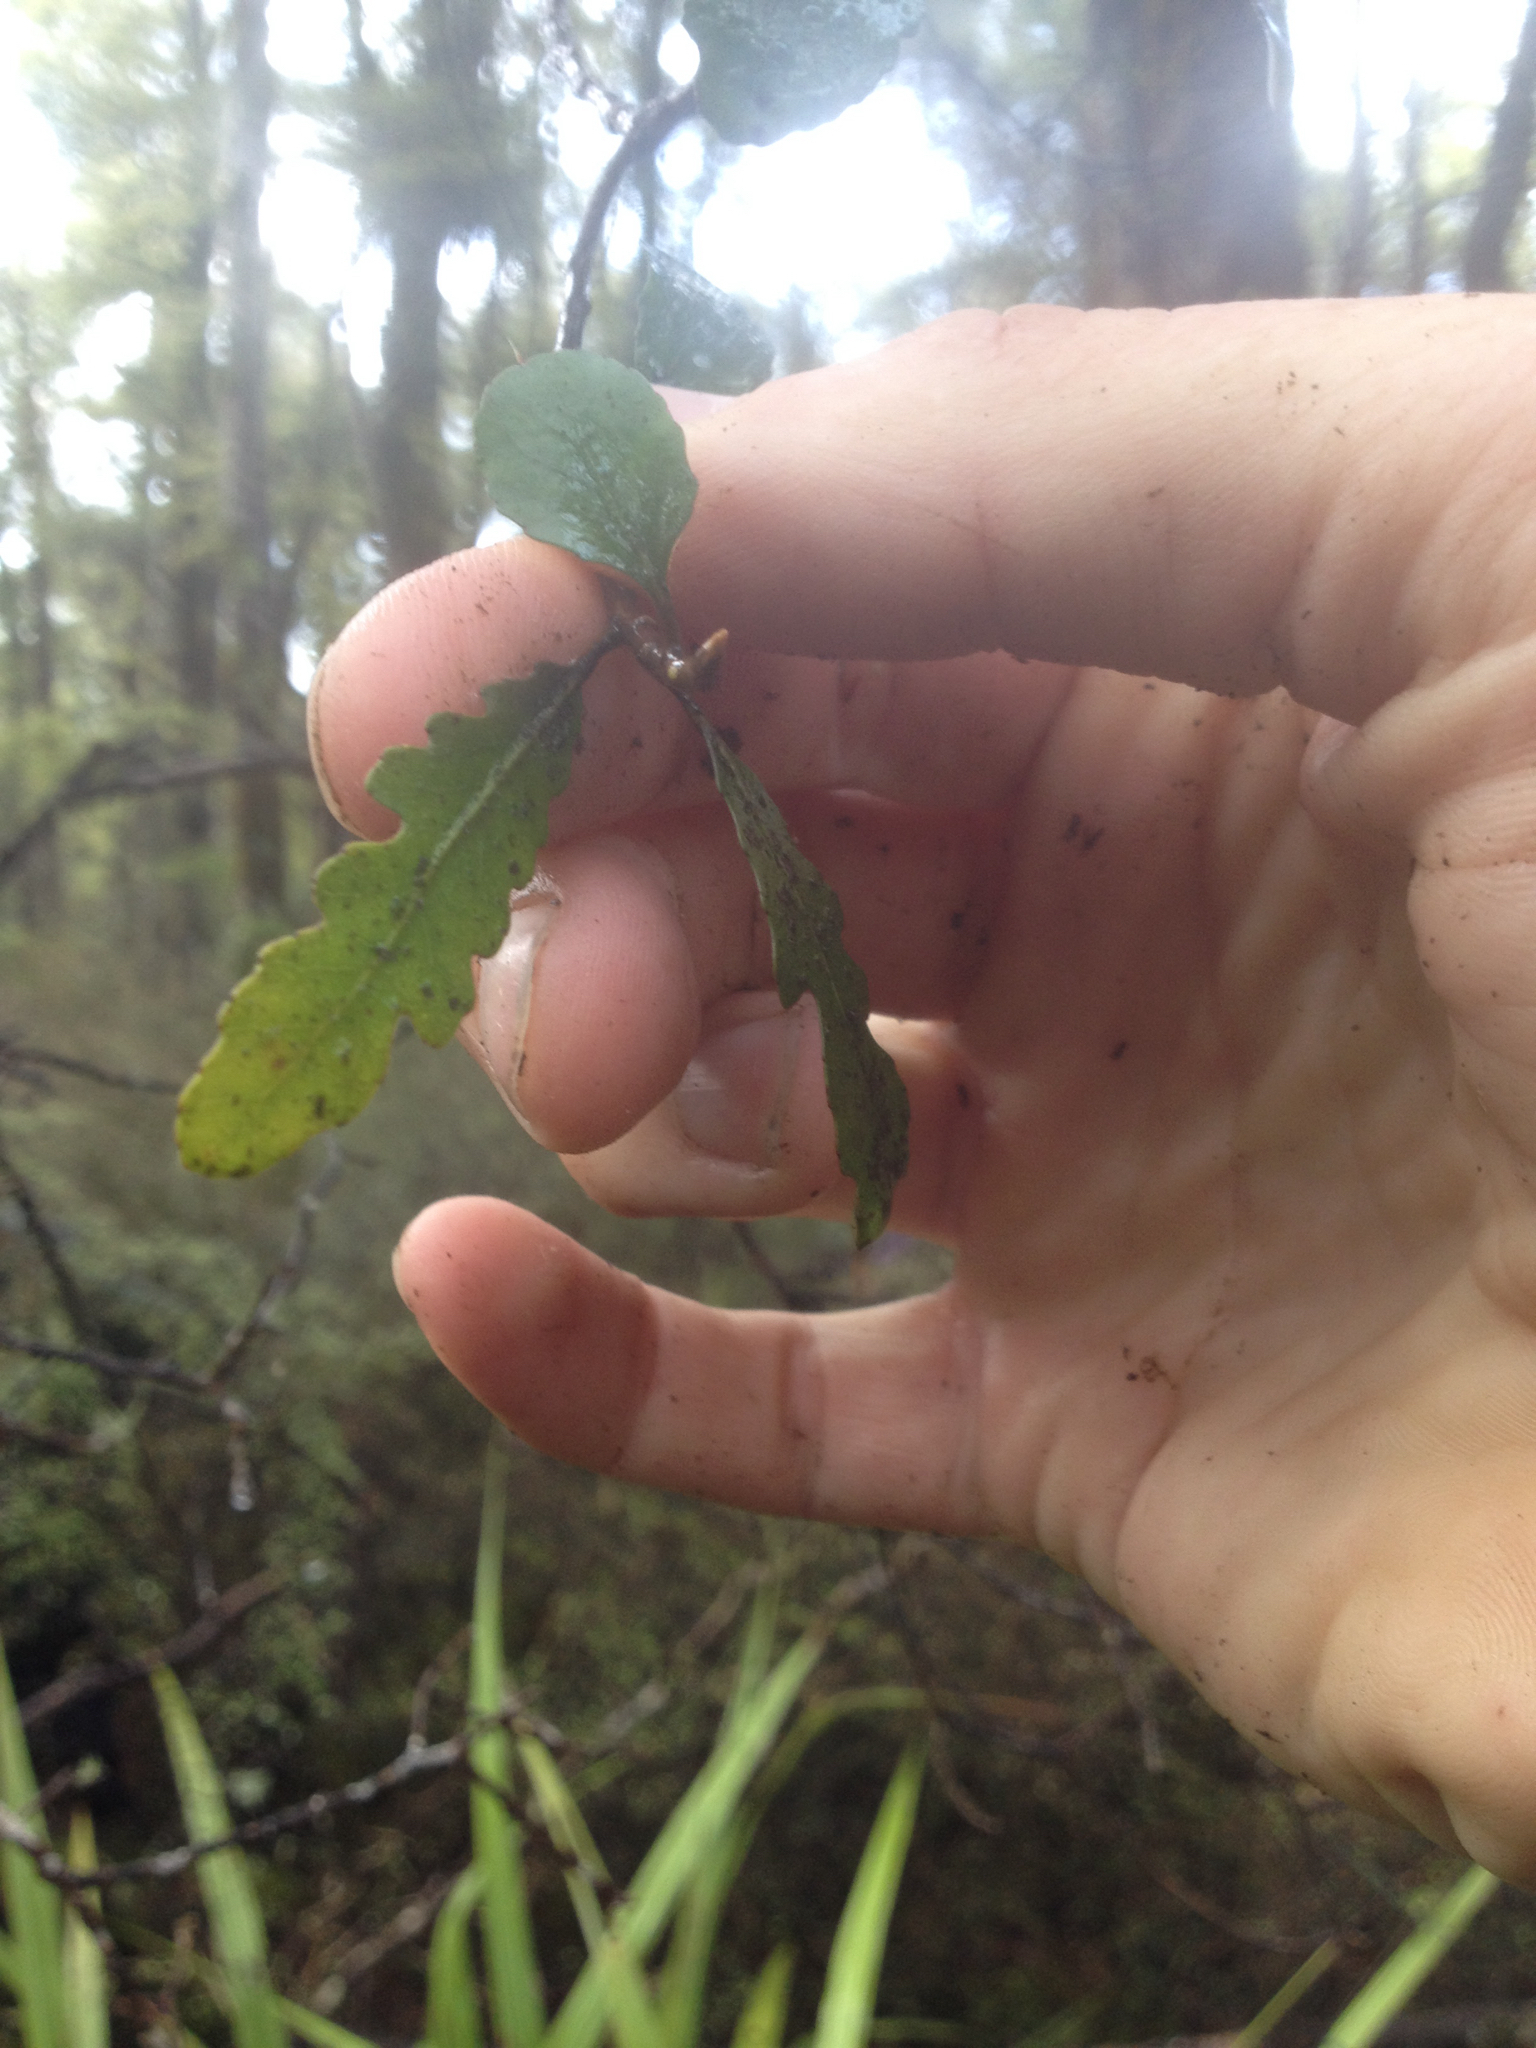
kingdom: Plantae
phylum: Tracheophyta
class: Magnoliopsida
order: Oxalidales
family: Elaeocarpaceae
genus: Elaeocarpus
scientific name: Elaeocarpus hookerianus
